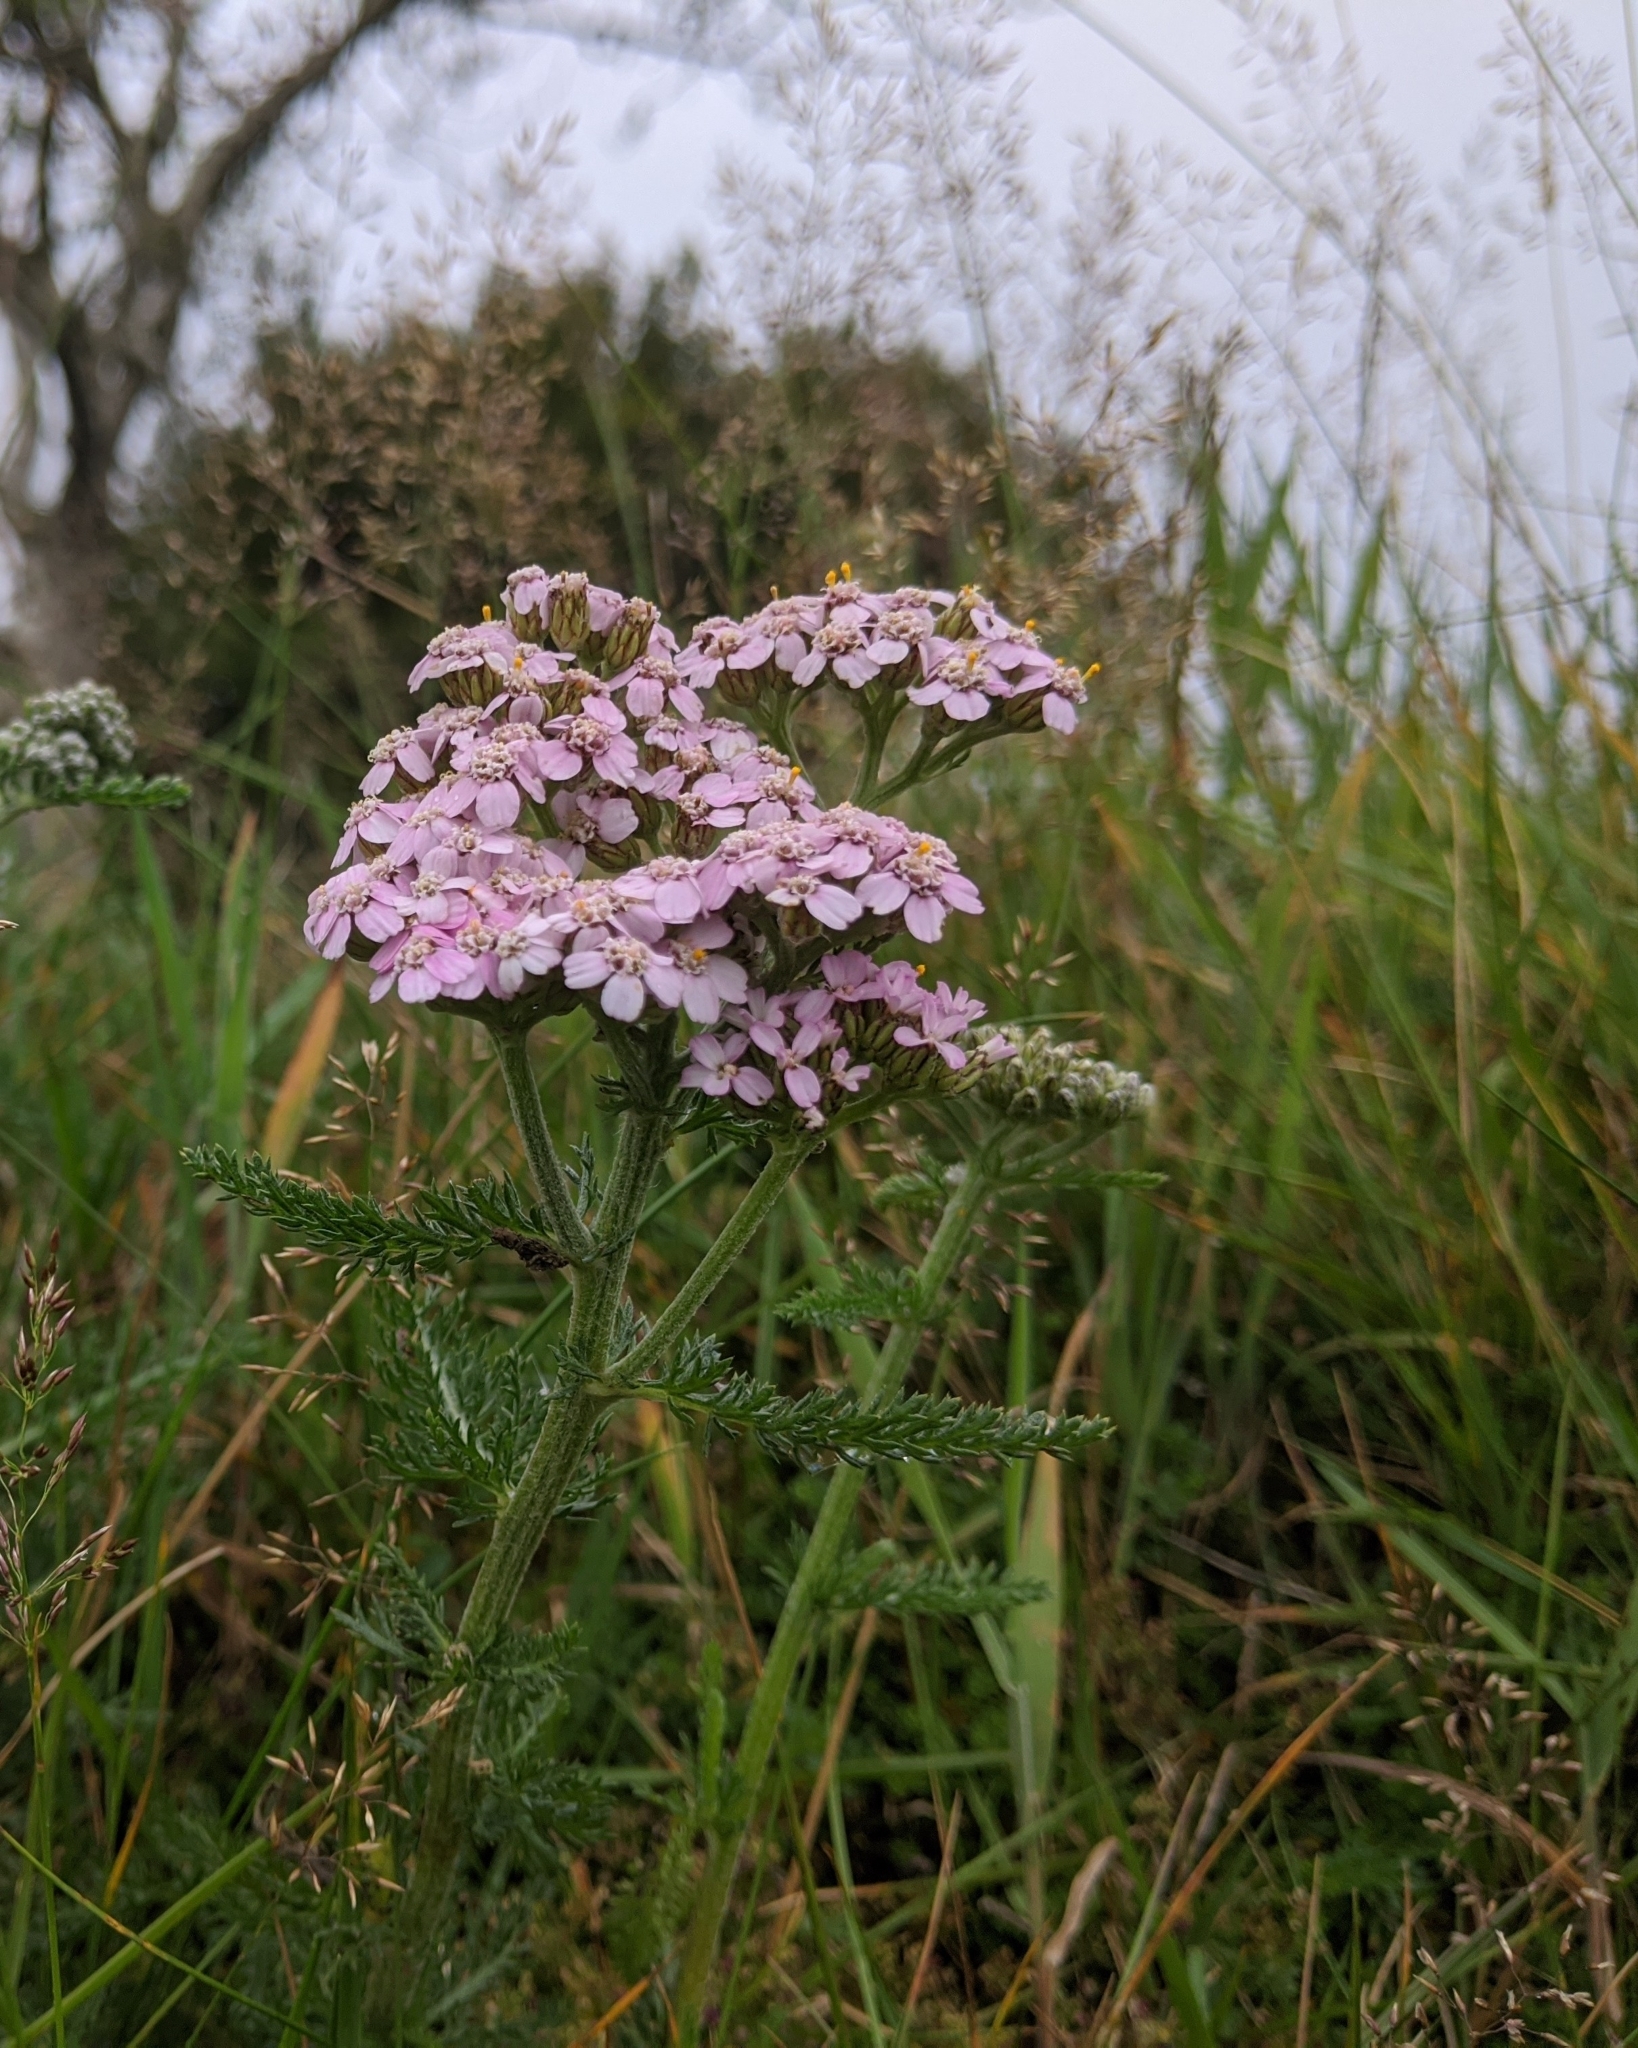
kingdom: Plantae
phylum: Tracheophyta
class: Magnoliopsida
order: Asterales
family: Asteraceae
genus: Achillea
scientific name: Achillea millefolium
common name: Yarrow
